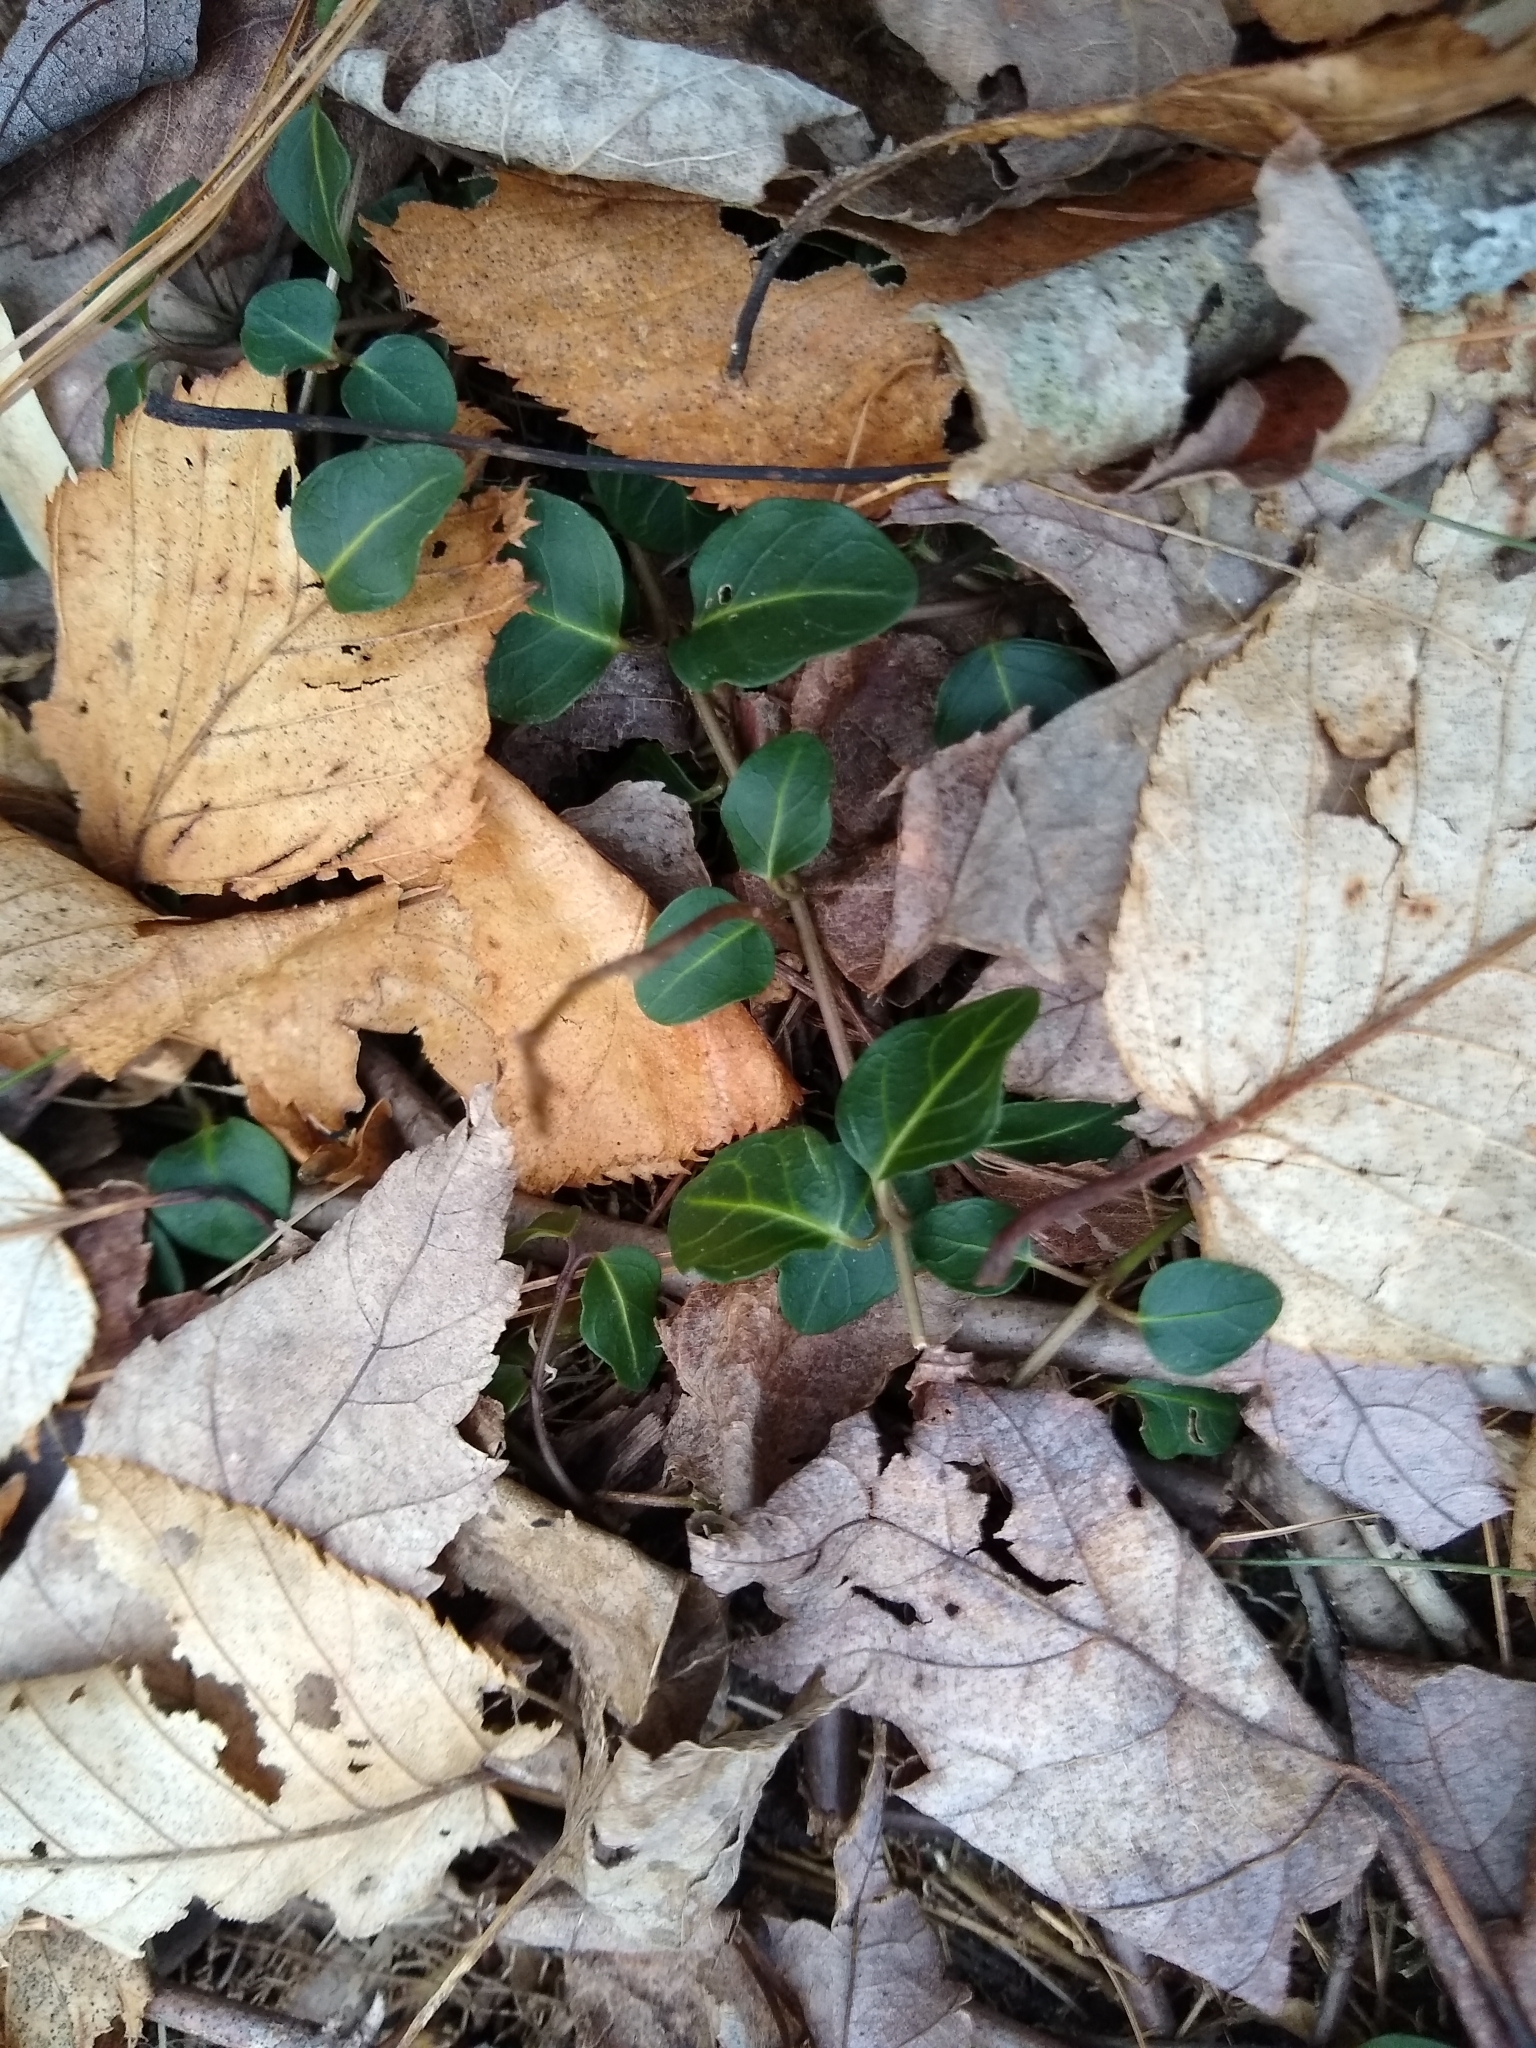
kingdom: Plantae
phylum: Tracheophyta
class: Magnoliopsida
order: Gentianales
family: Rubiaceae
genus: Mitchella
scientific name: Mitchella repens
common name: Partridge-berry
